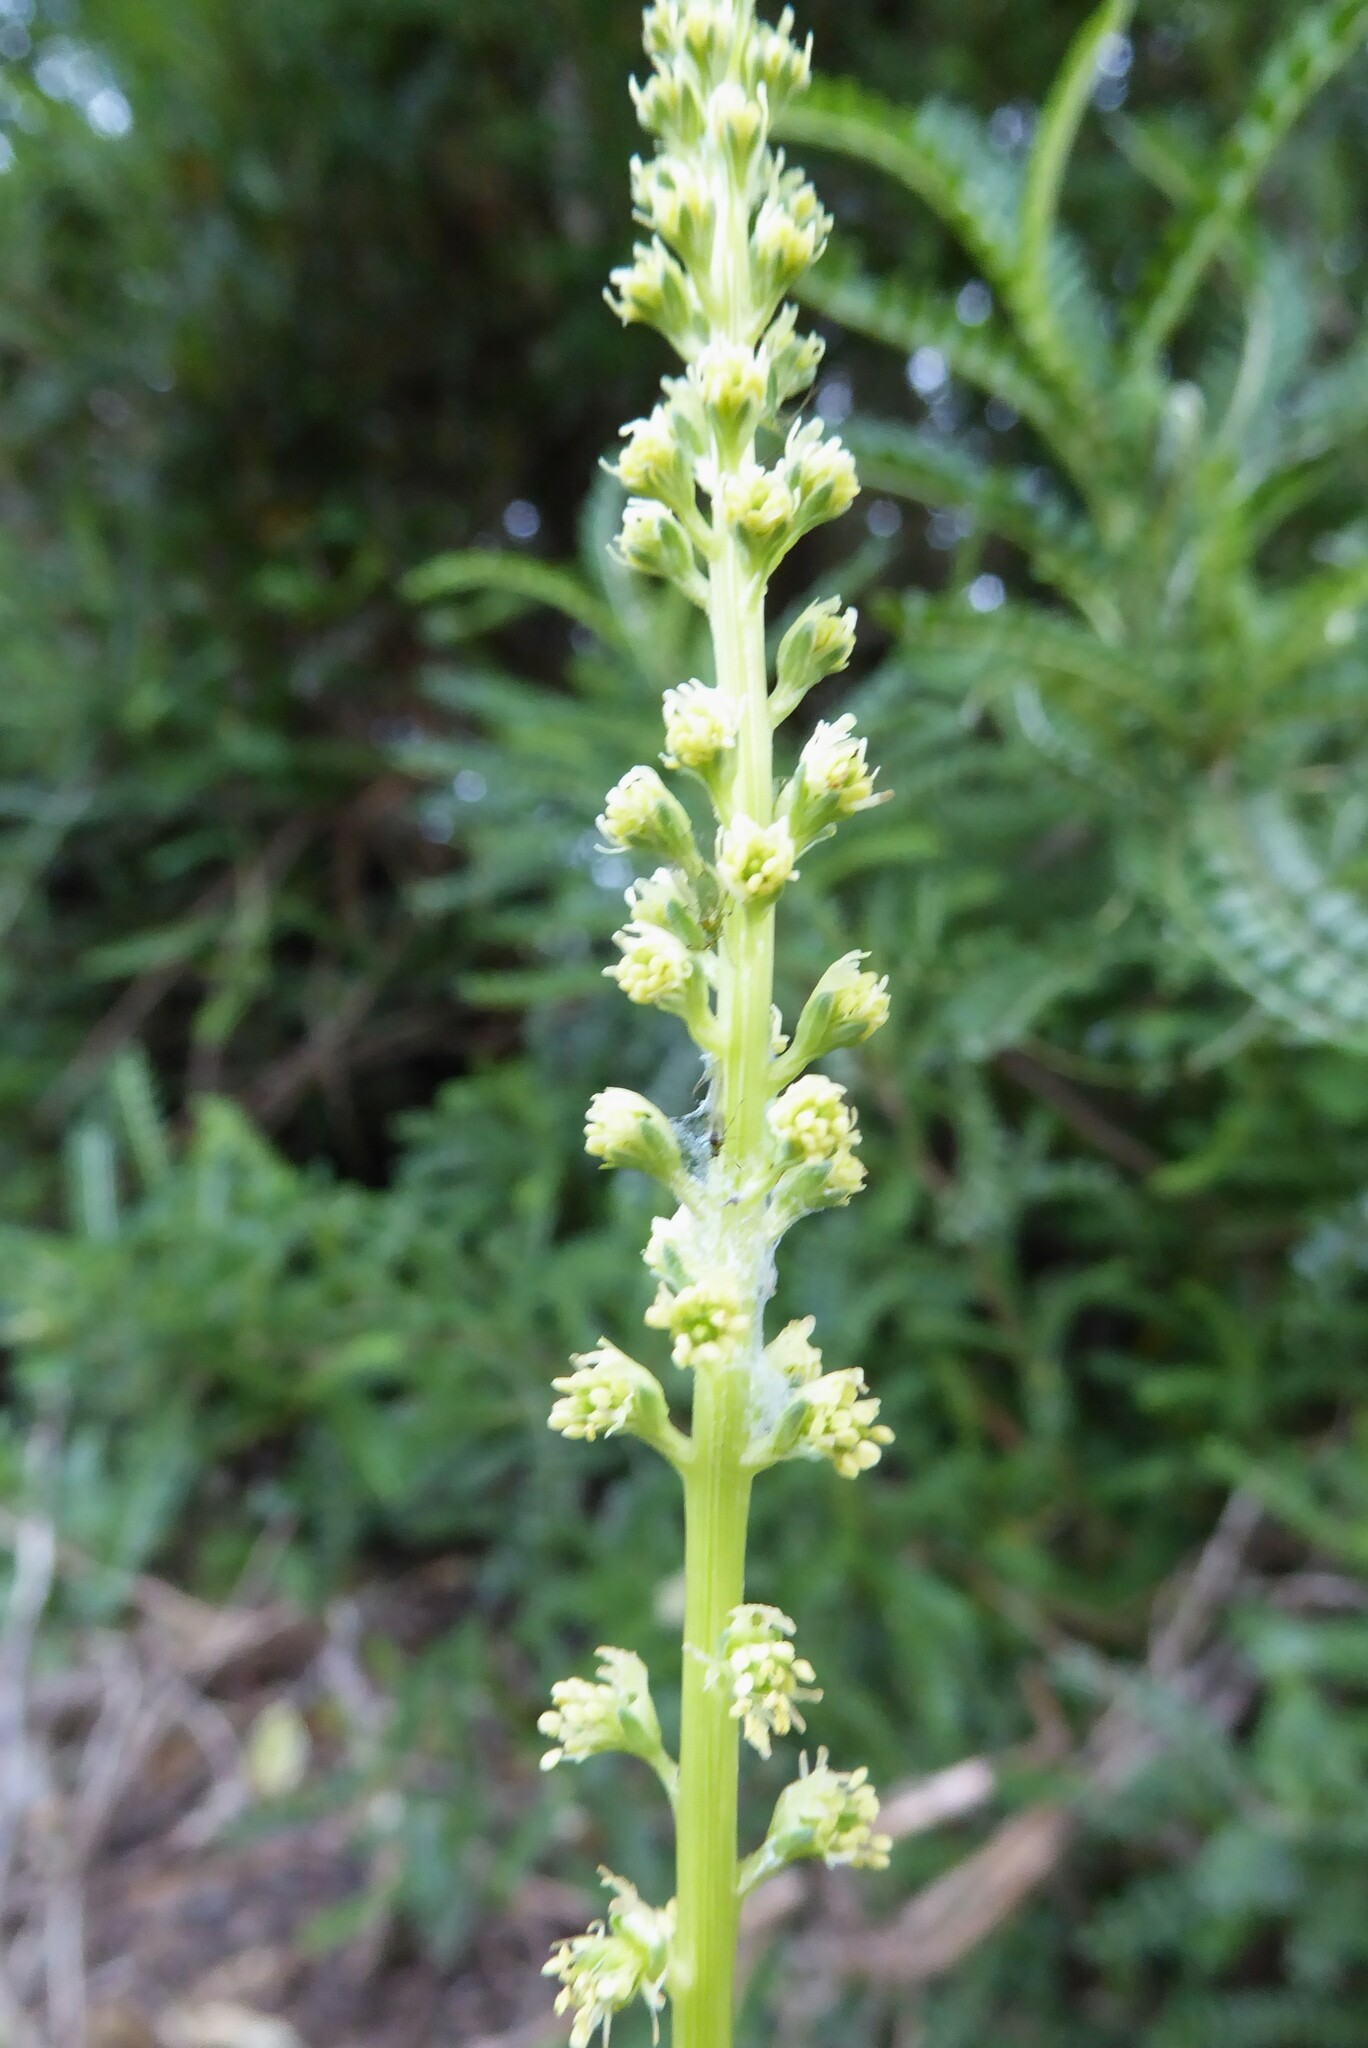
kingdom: Plantae
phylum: Tracheophyta
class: Magnoliopsida
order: Brassicales
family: Resedaceae
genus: Reseda
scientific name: Reseda luteola
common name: Weld
